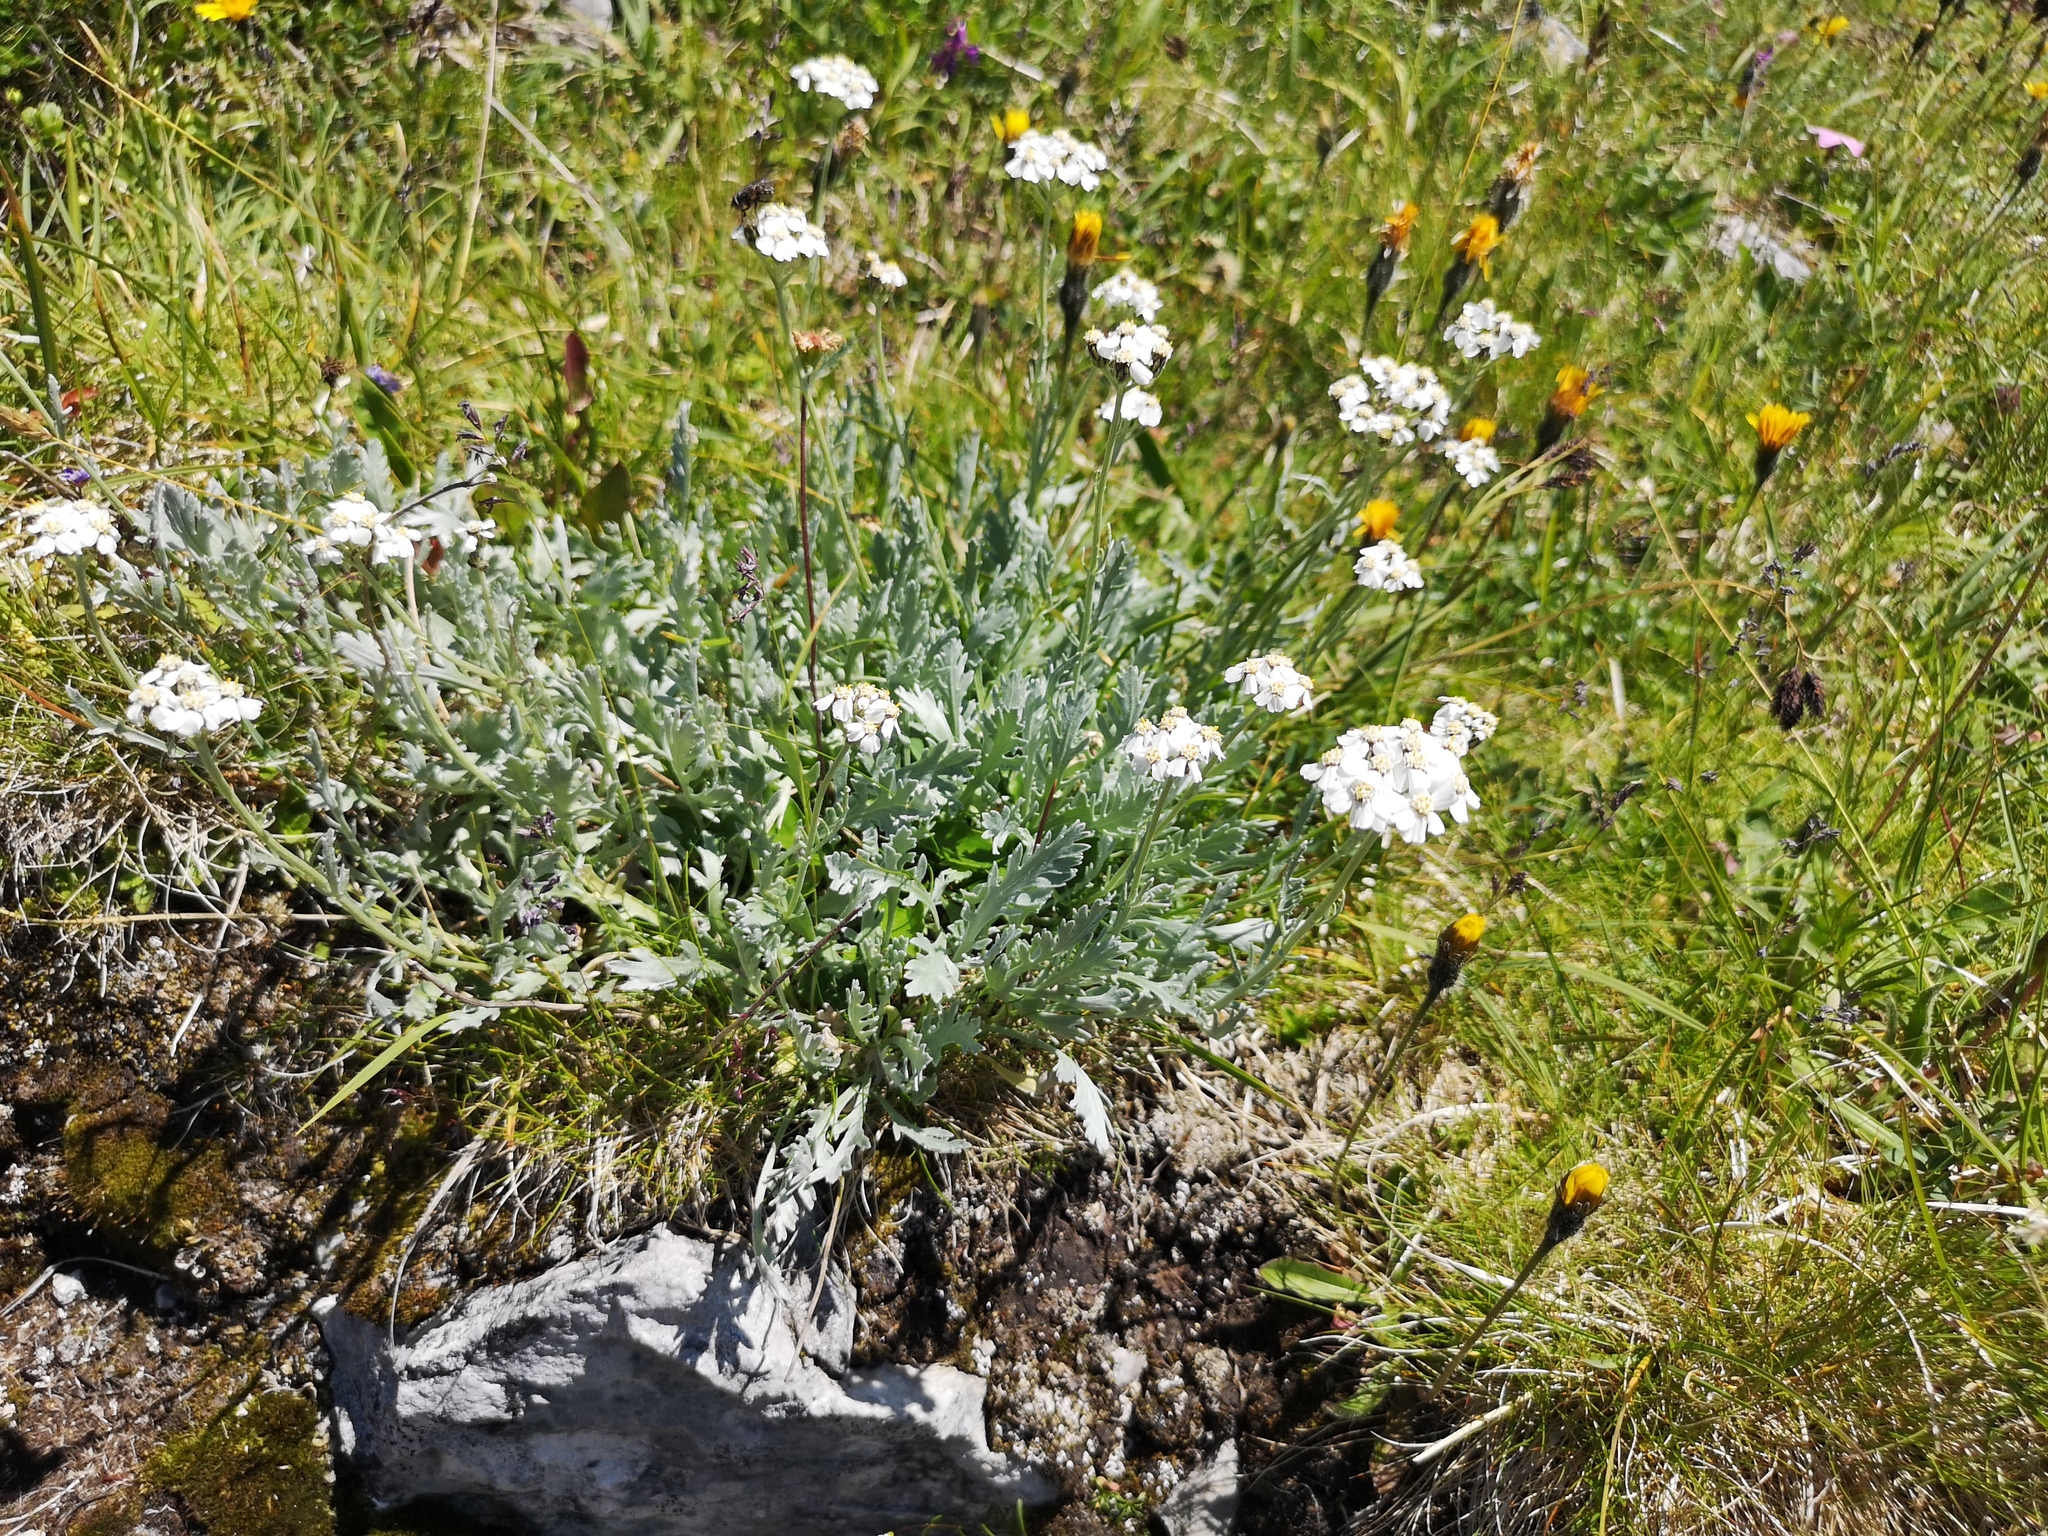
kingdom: Plantae
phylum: Tracheophyta
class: Magnoliopsida
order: Asterales
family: Asteraceae
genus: Achillea
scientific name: Achillea clavennae
